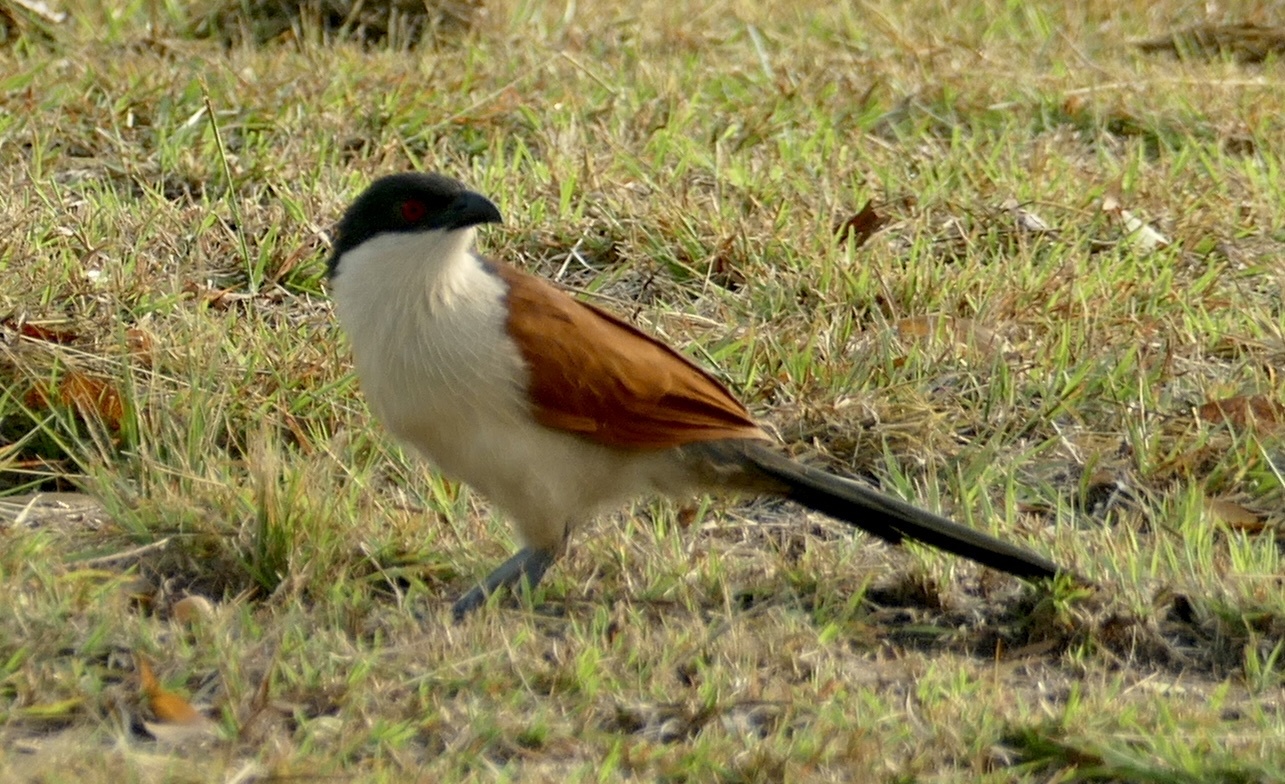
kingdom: Animalia
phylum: Chordata
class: Aves
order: Cuculiformes
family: Cuculidae
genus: Centropus
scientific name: Centropus senegalensis
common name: Senegal coucal
